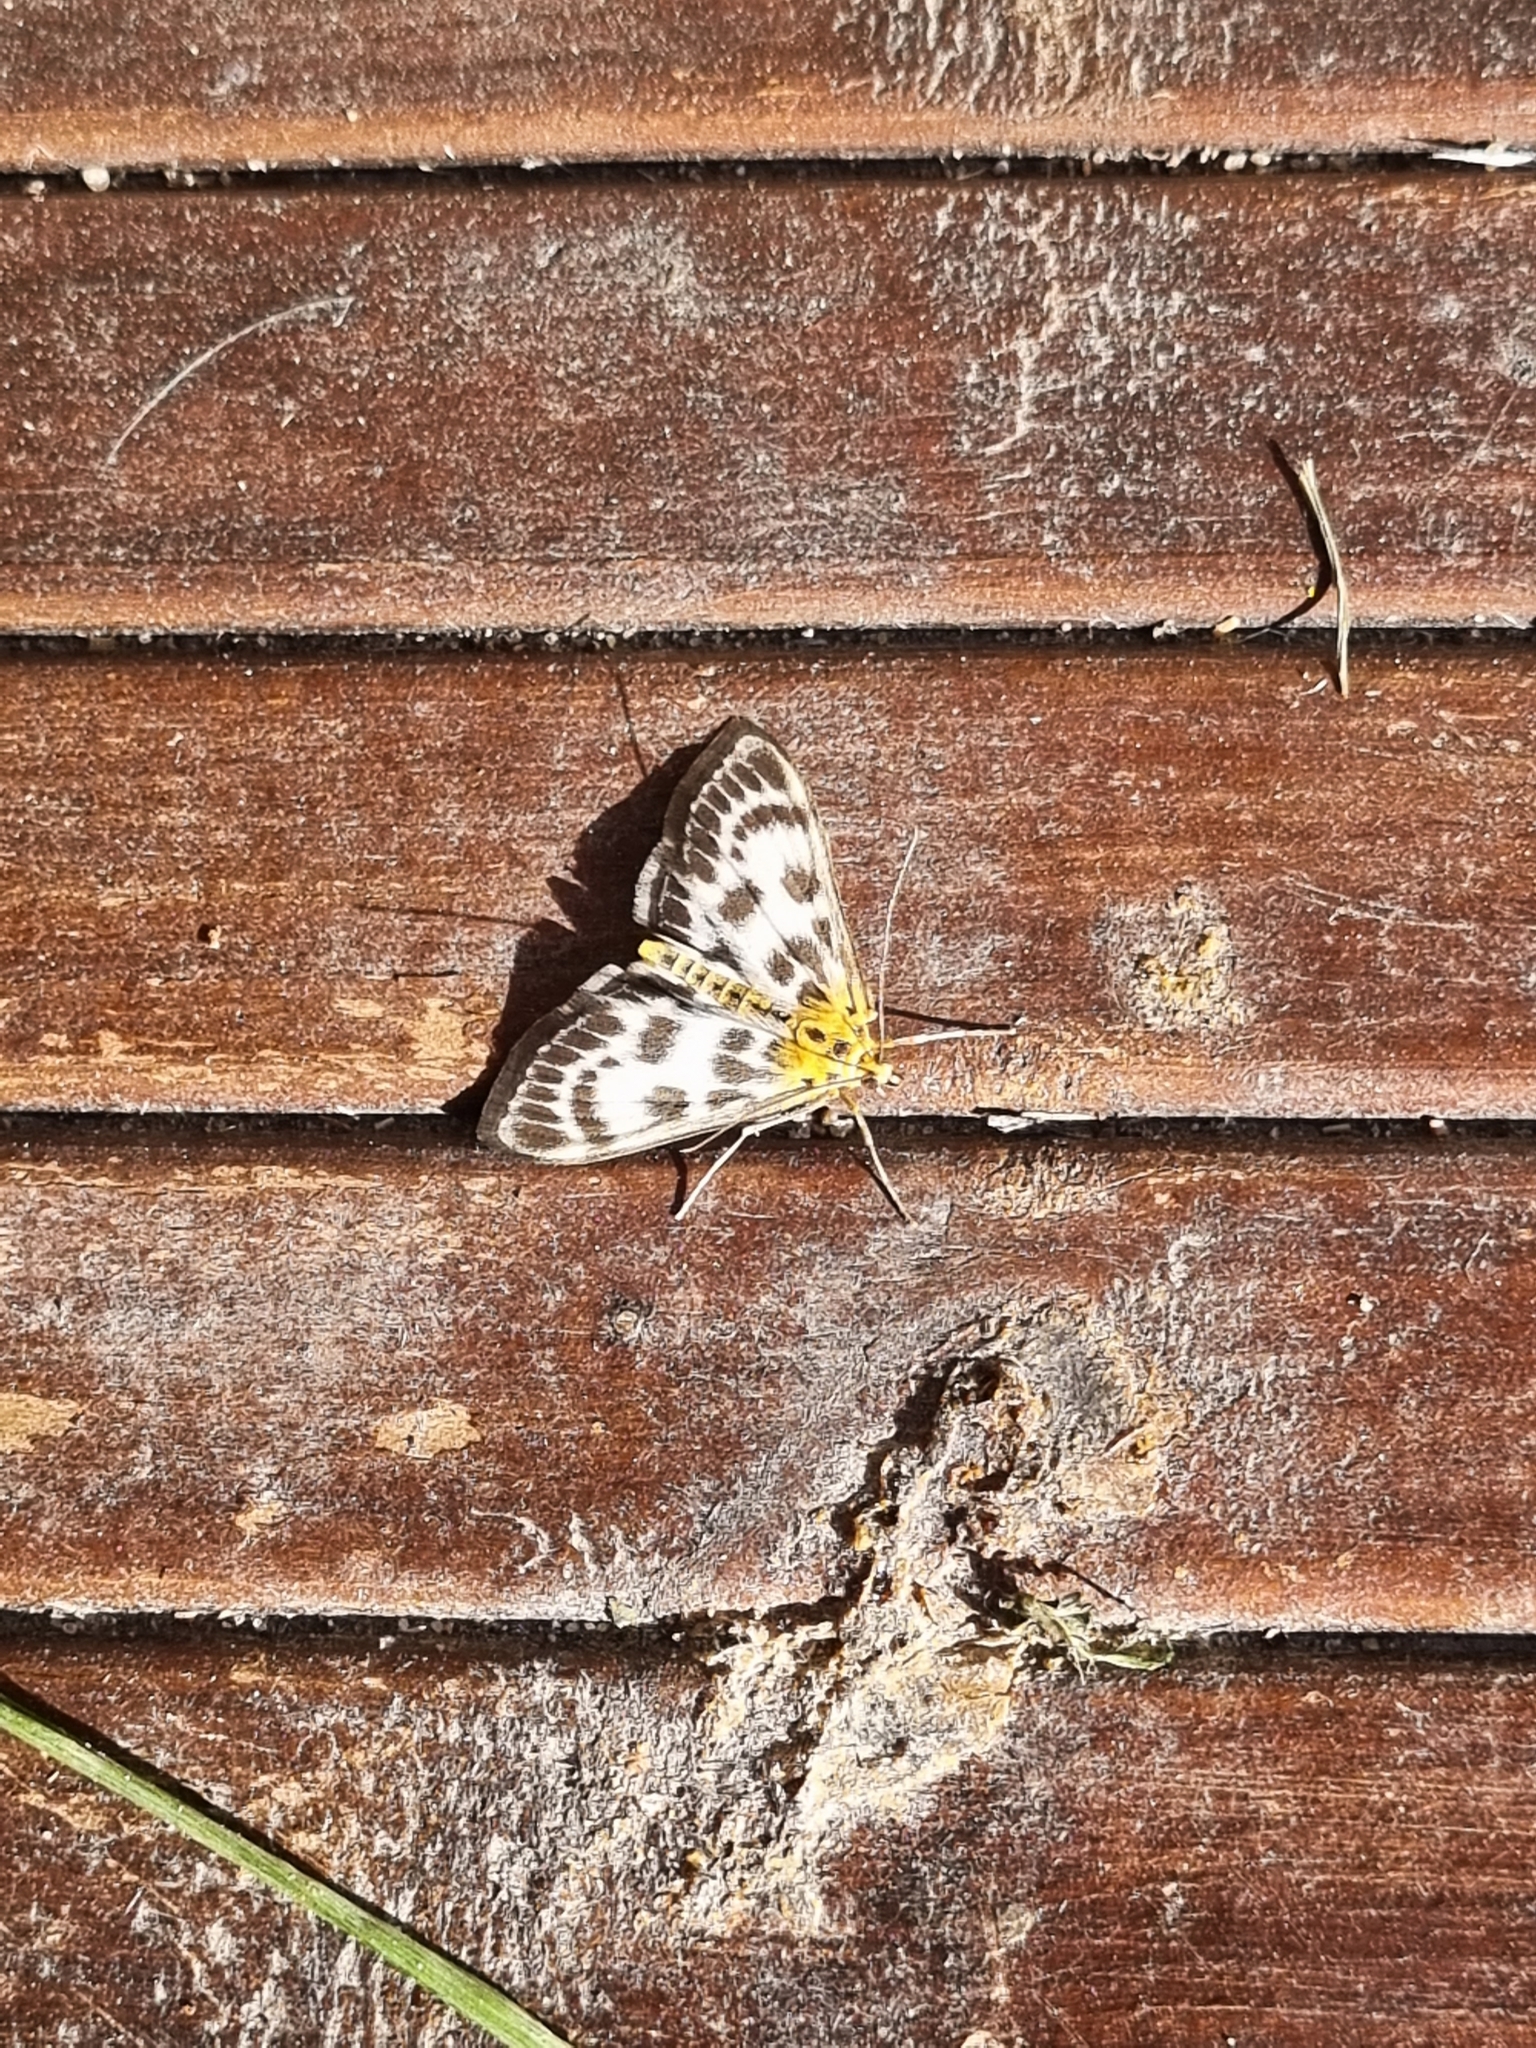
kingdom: Animalia
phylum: Arthropoda
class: Insecta
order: Lepidoptera
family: Crambidae
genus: Anania
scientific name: Anania hortulata
